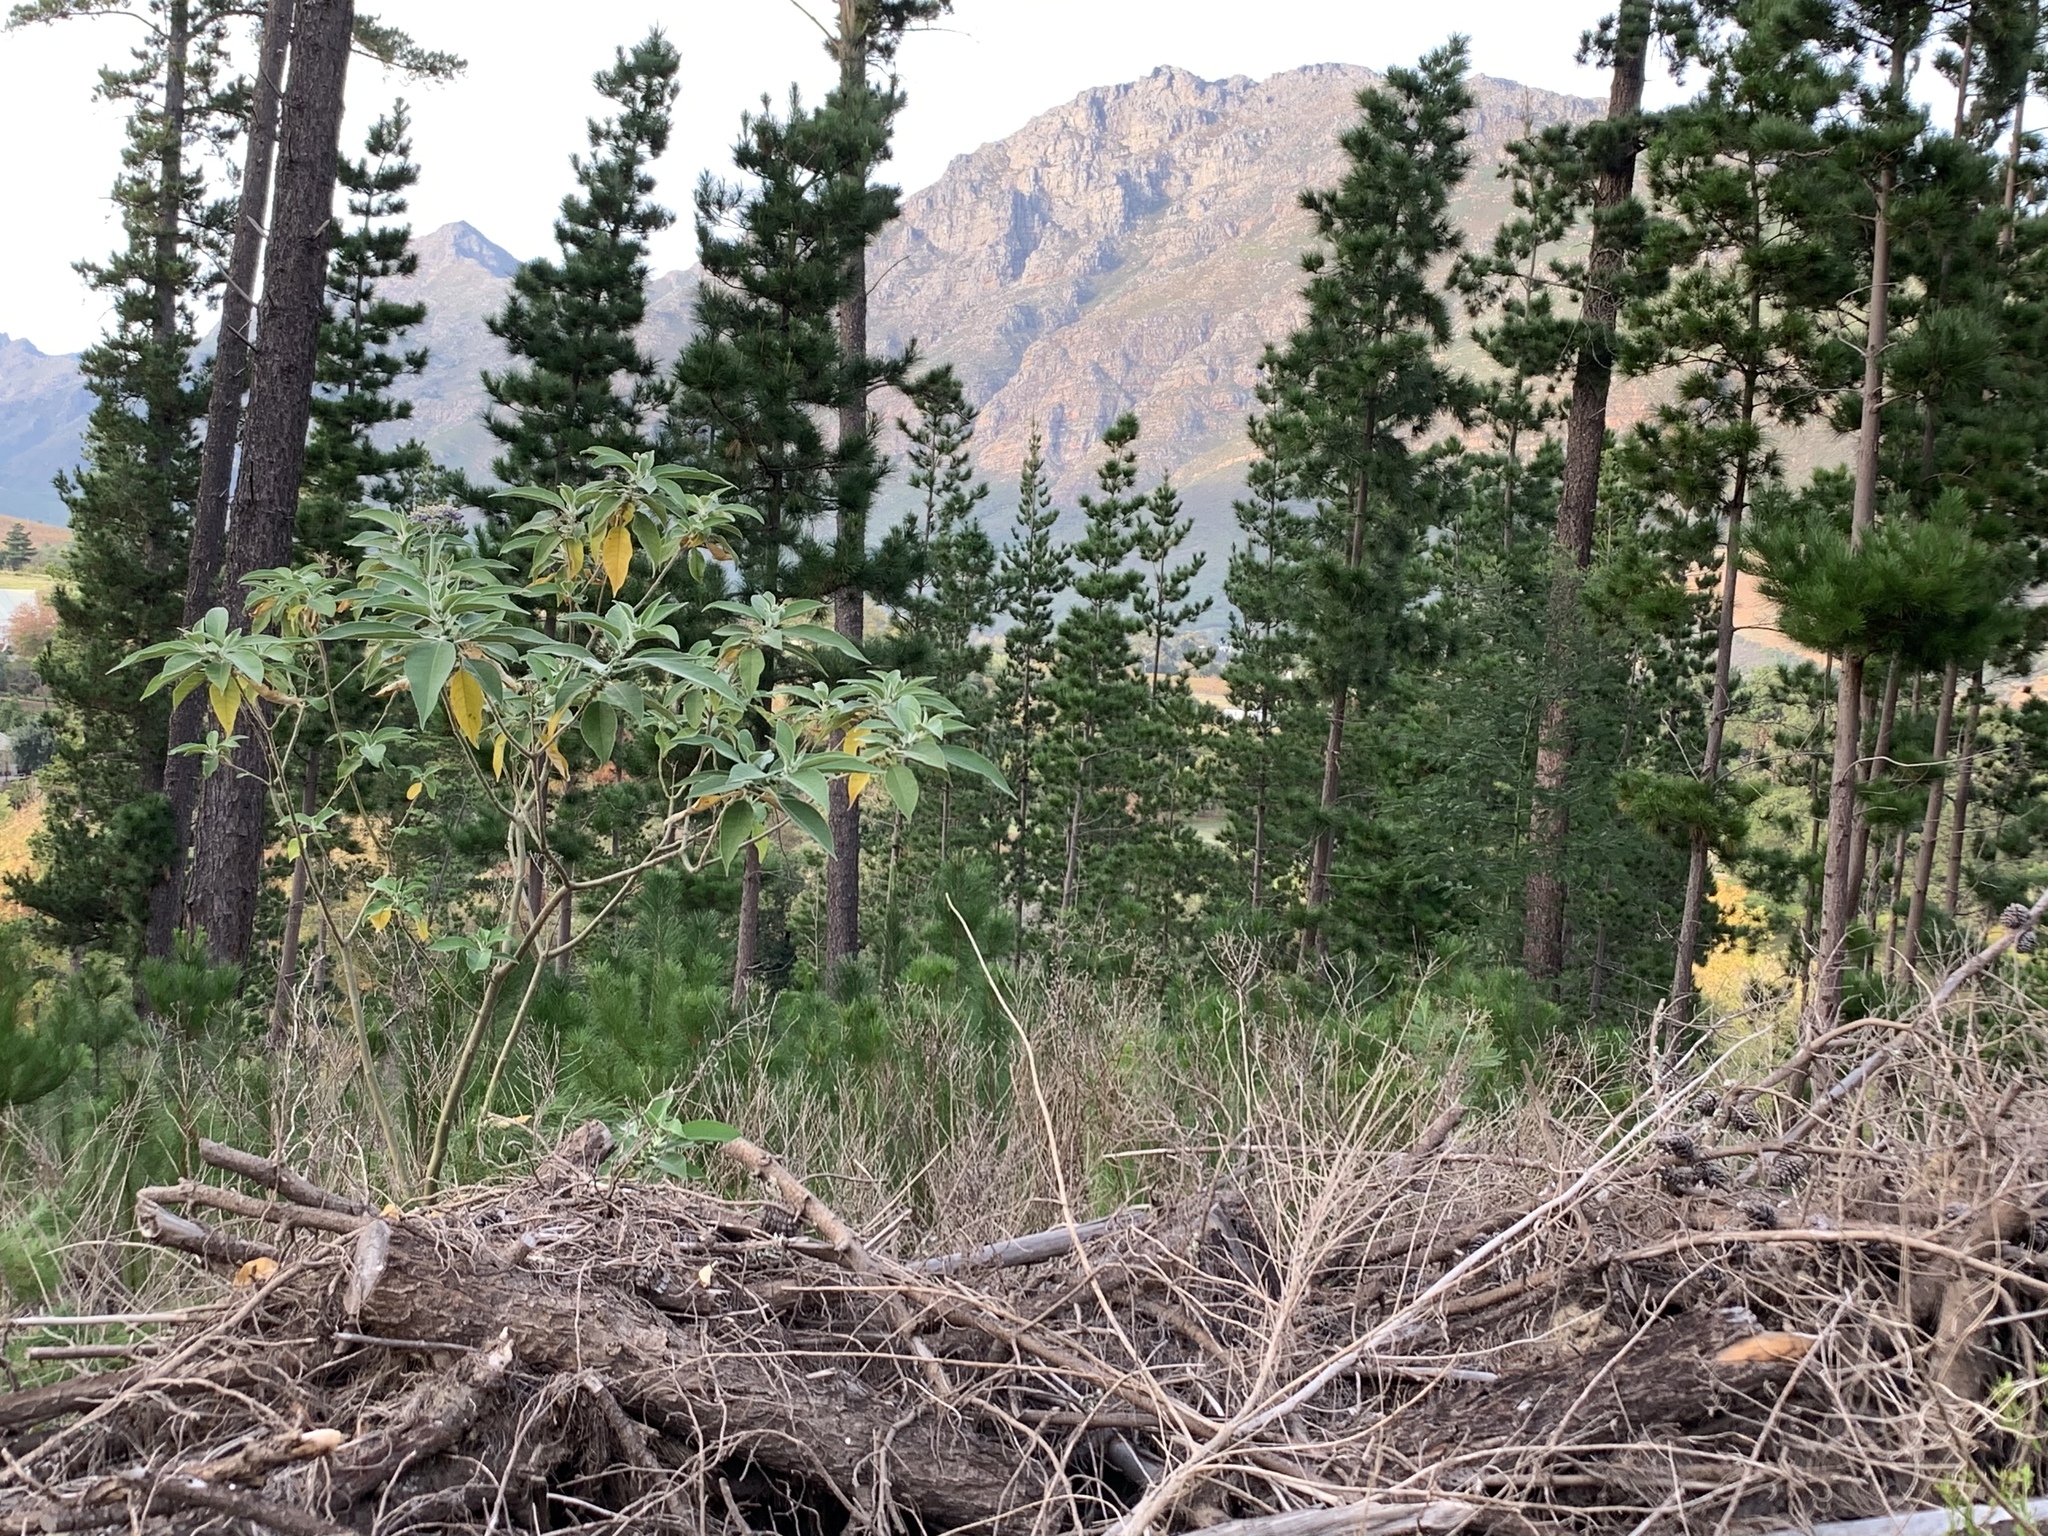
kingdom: Plantae
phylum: Tracheophyta
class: Magnoliopsida
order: Solanales
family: Solanaceae
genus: Solanum
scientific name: Solanum mauritianum
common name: Earleaf nightshade
